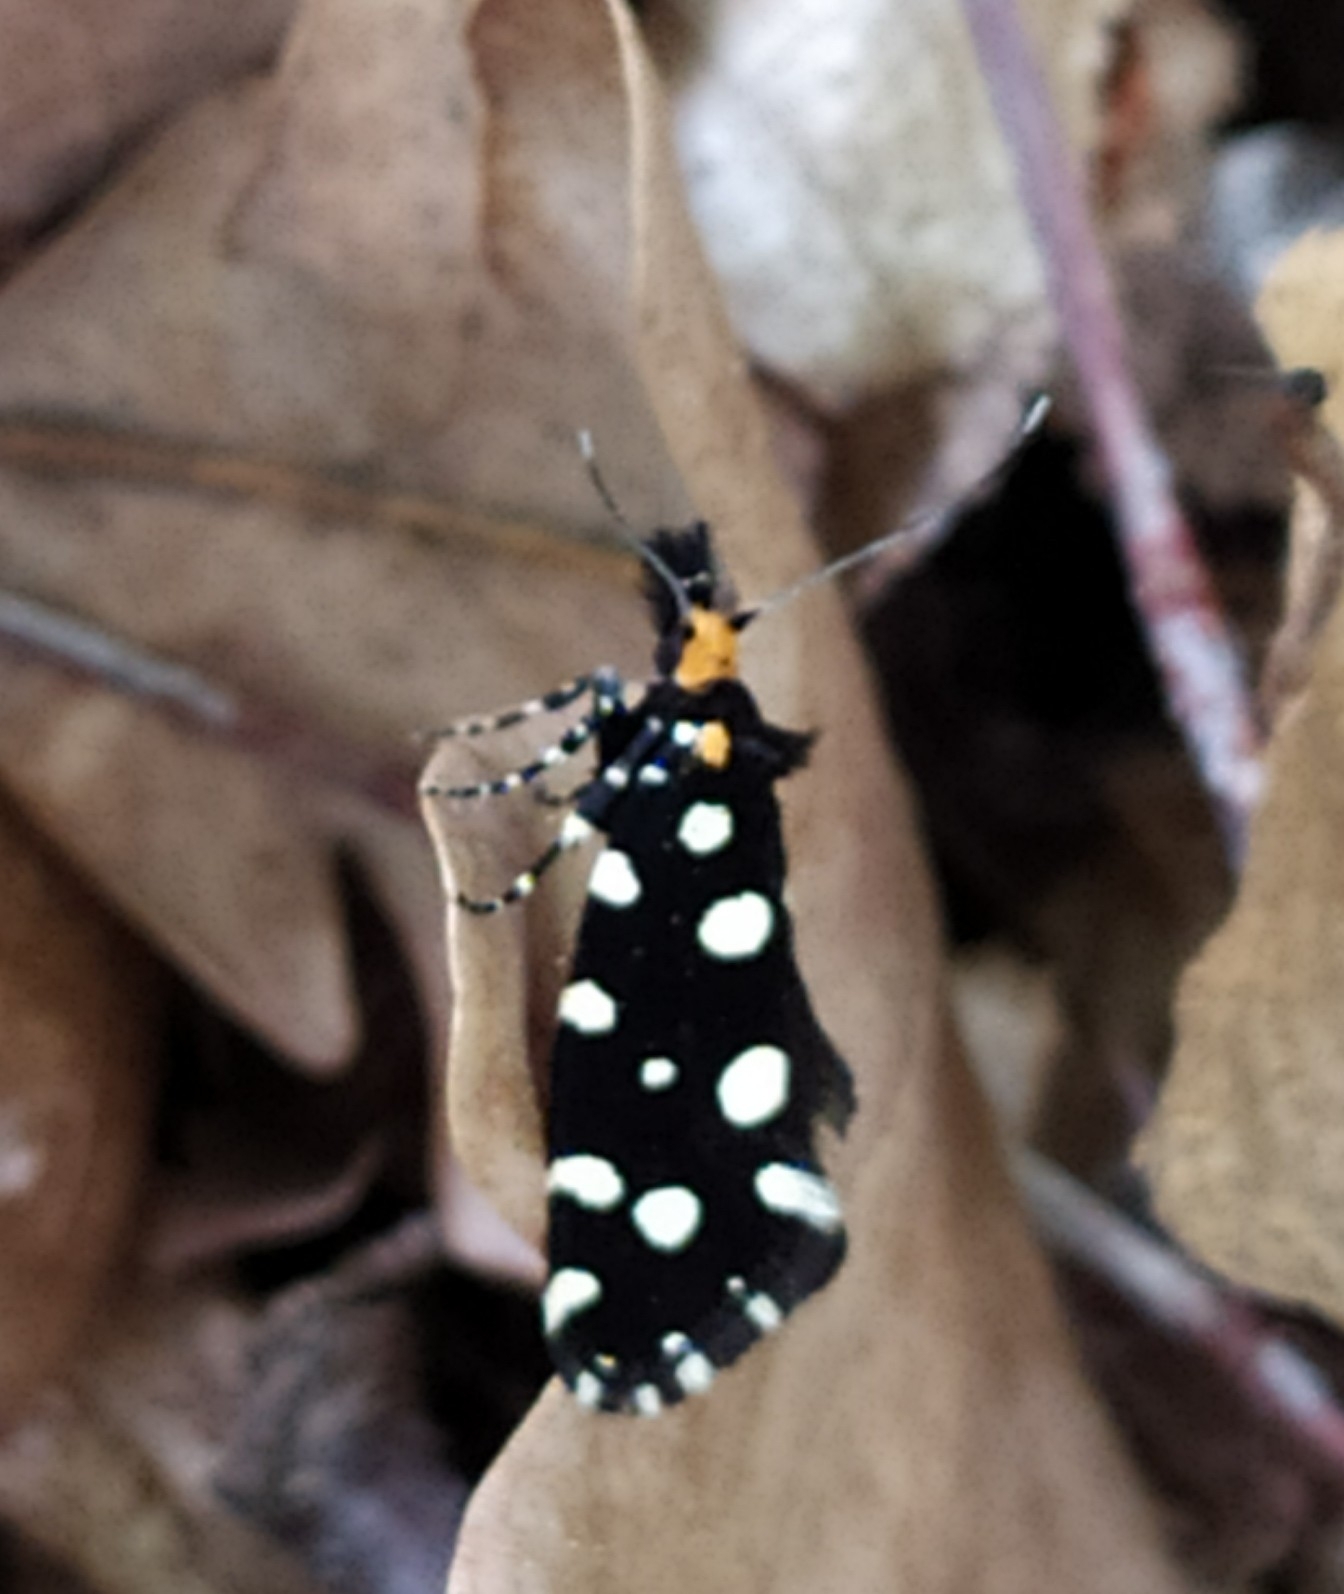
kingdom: Animalia
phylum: Arthropoda
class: Insecta
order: Lepidoptera
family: Tineidae
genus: Euplocamus
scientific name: Euplocamus anthracinalis
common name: Black clothes
